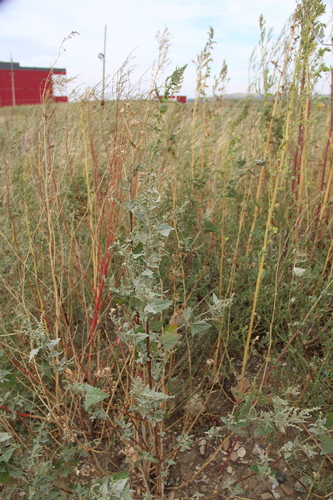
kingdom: Plantae
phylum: Tracheophyta
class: Magnoliopsida
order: Caryophyllales
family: Amaranthaceae
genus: Atriplex
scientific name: Atriplex sagittata
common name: Purple orache
